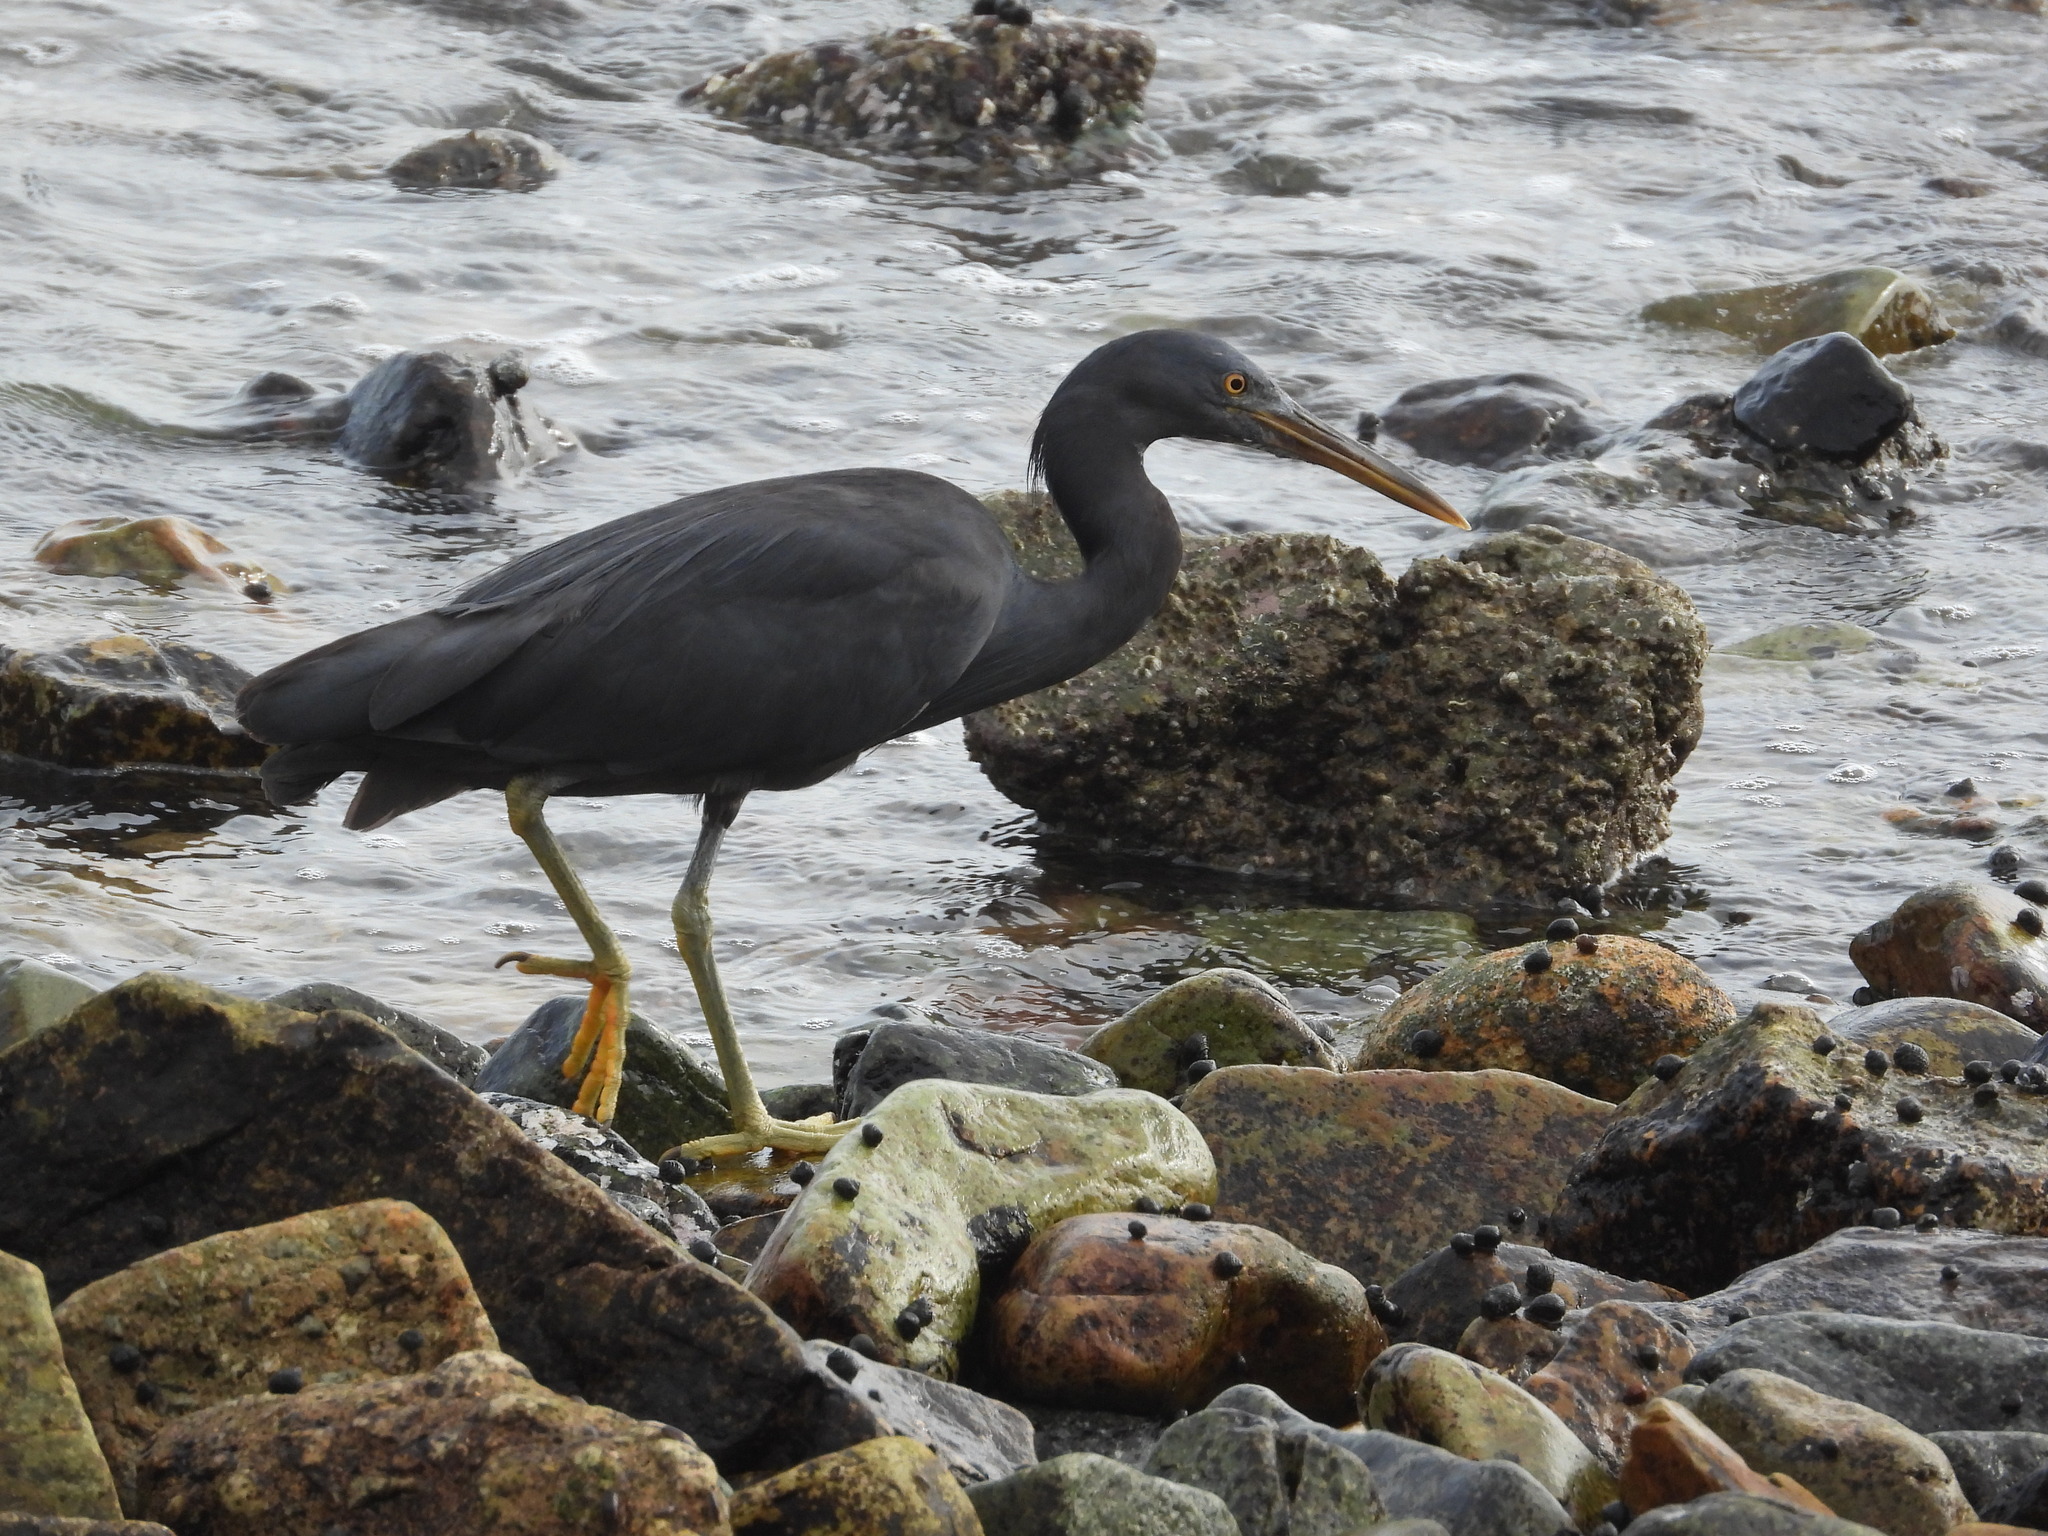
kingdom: Animalia
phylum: Chordata
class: Aves
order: Pelecaniformes
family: Ardeidae
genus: Egretta
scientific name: Egretta sacra
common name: Pacific reef heron
